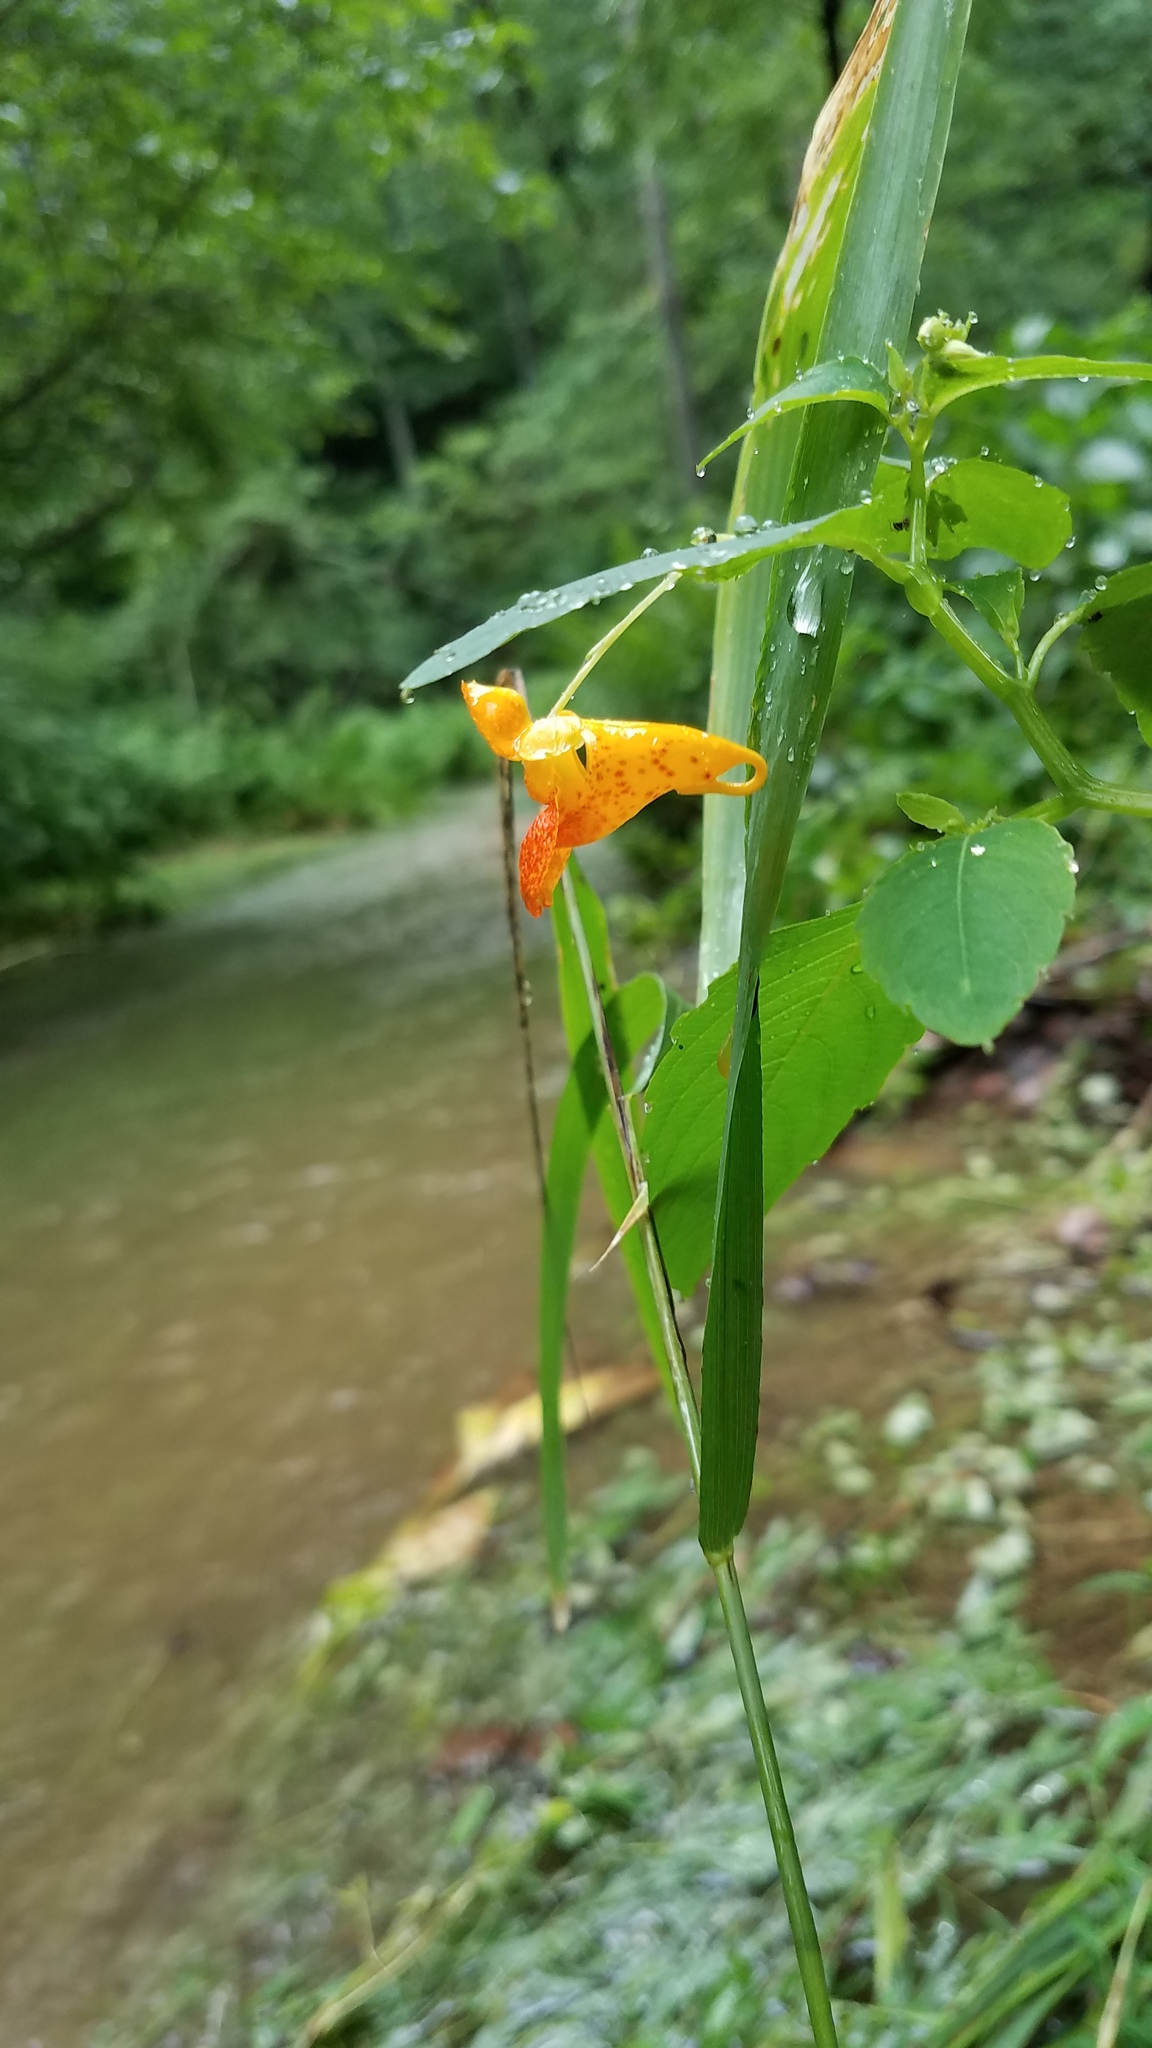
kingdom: Plantae
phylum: Tracheophyta
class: Magnoliopsida
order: Ericales
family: Balsaminaceae
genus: Impatiens
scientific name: Impatiens capensis
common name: Orange balsam
